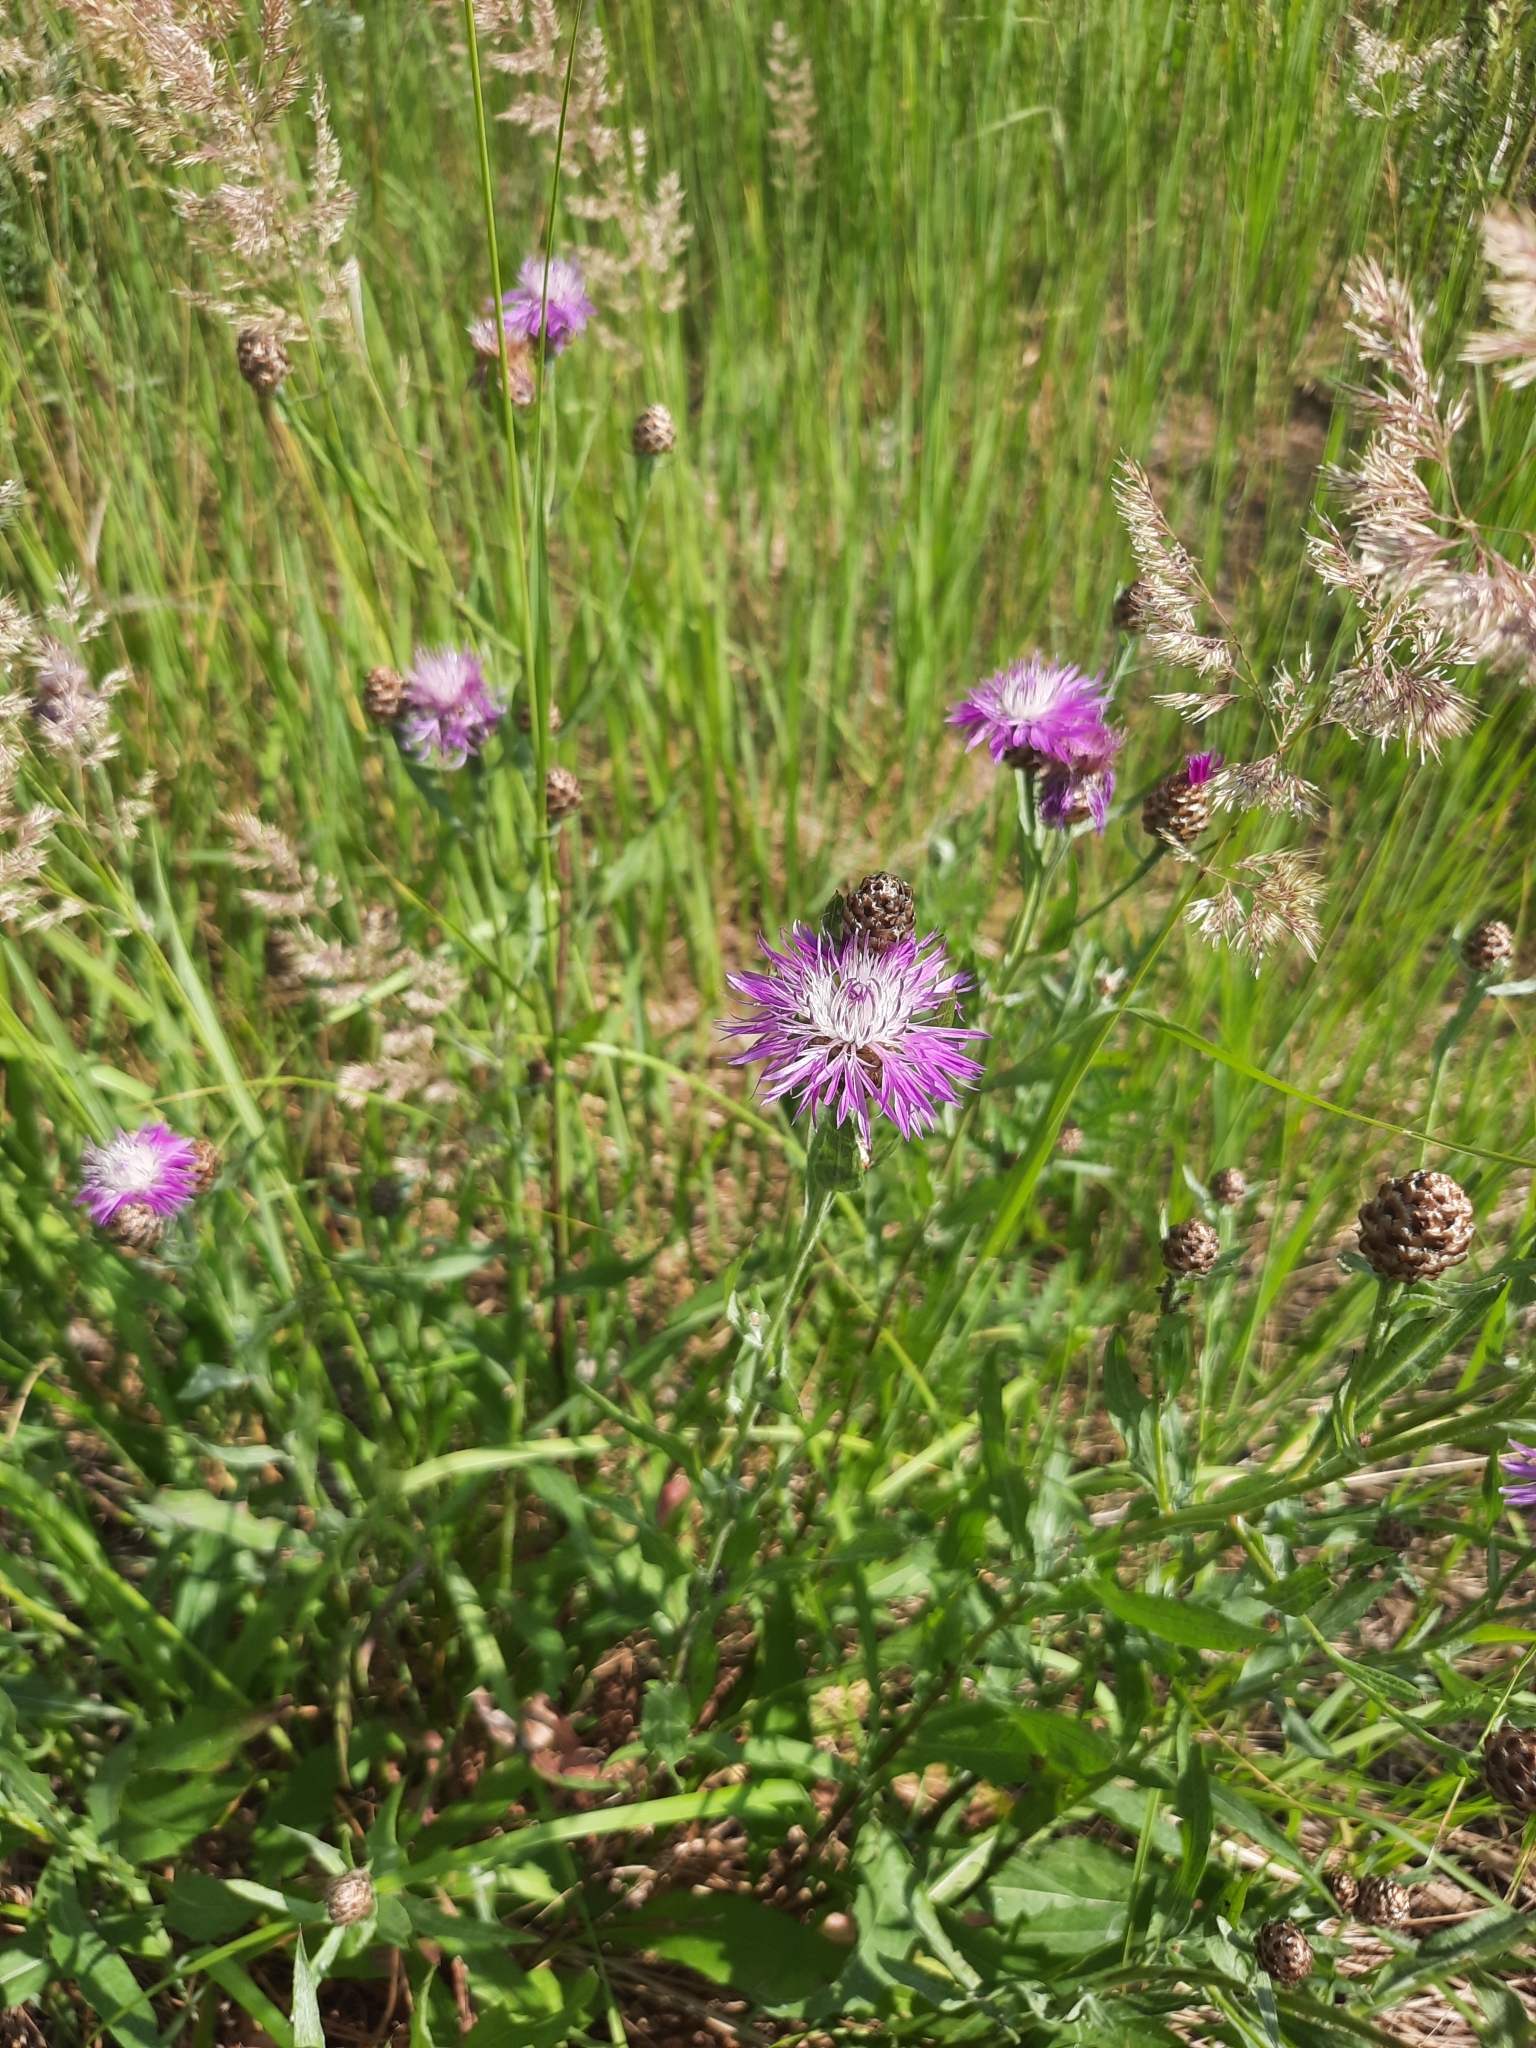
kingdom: Plantae
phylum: Tracheophyta
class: Magnoliopsida
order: Asterales
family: Asteraceae
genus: Centaurea
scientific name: Centaurea jacea
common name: Brown knapweed
